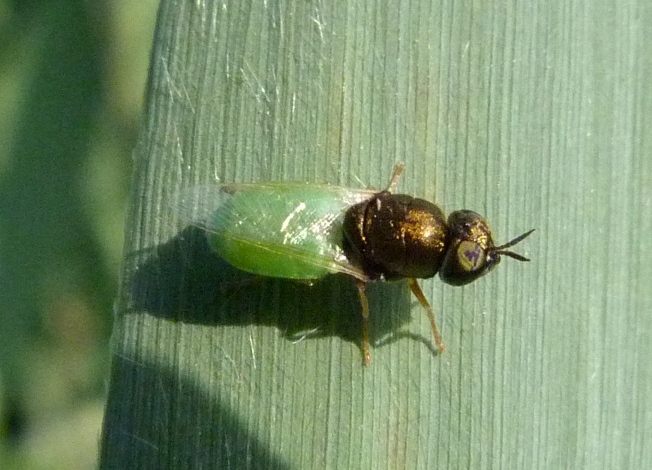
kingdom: Animalia
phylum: Arthropoda
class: Insecta
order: Diptera
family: Stratiomyidae
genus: Oplodontha
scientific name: Oplodontha viridula
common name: Common green colonel
